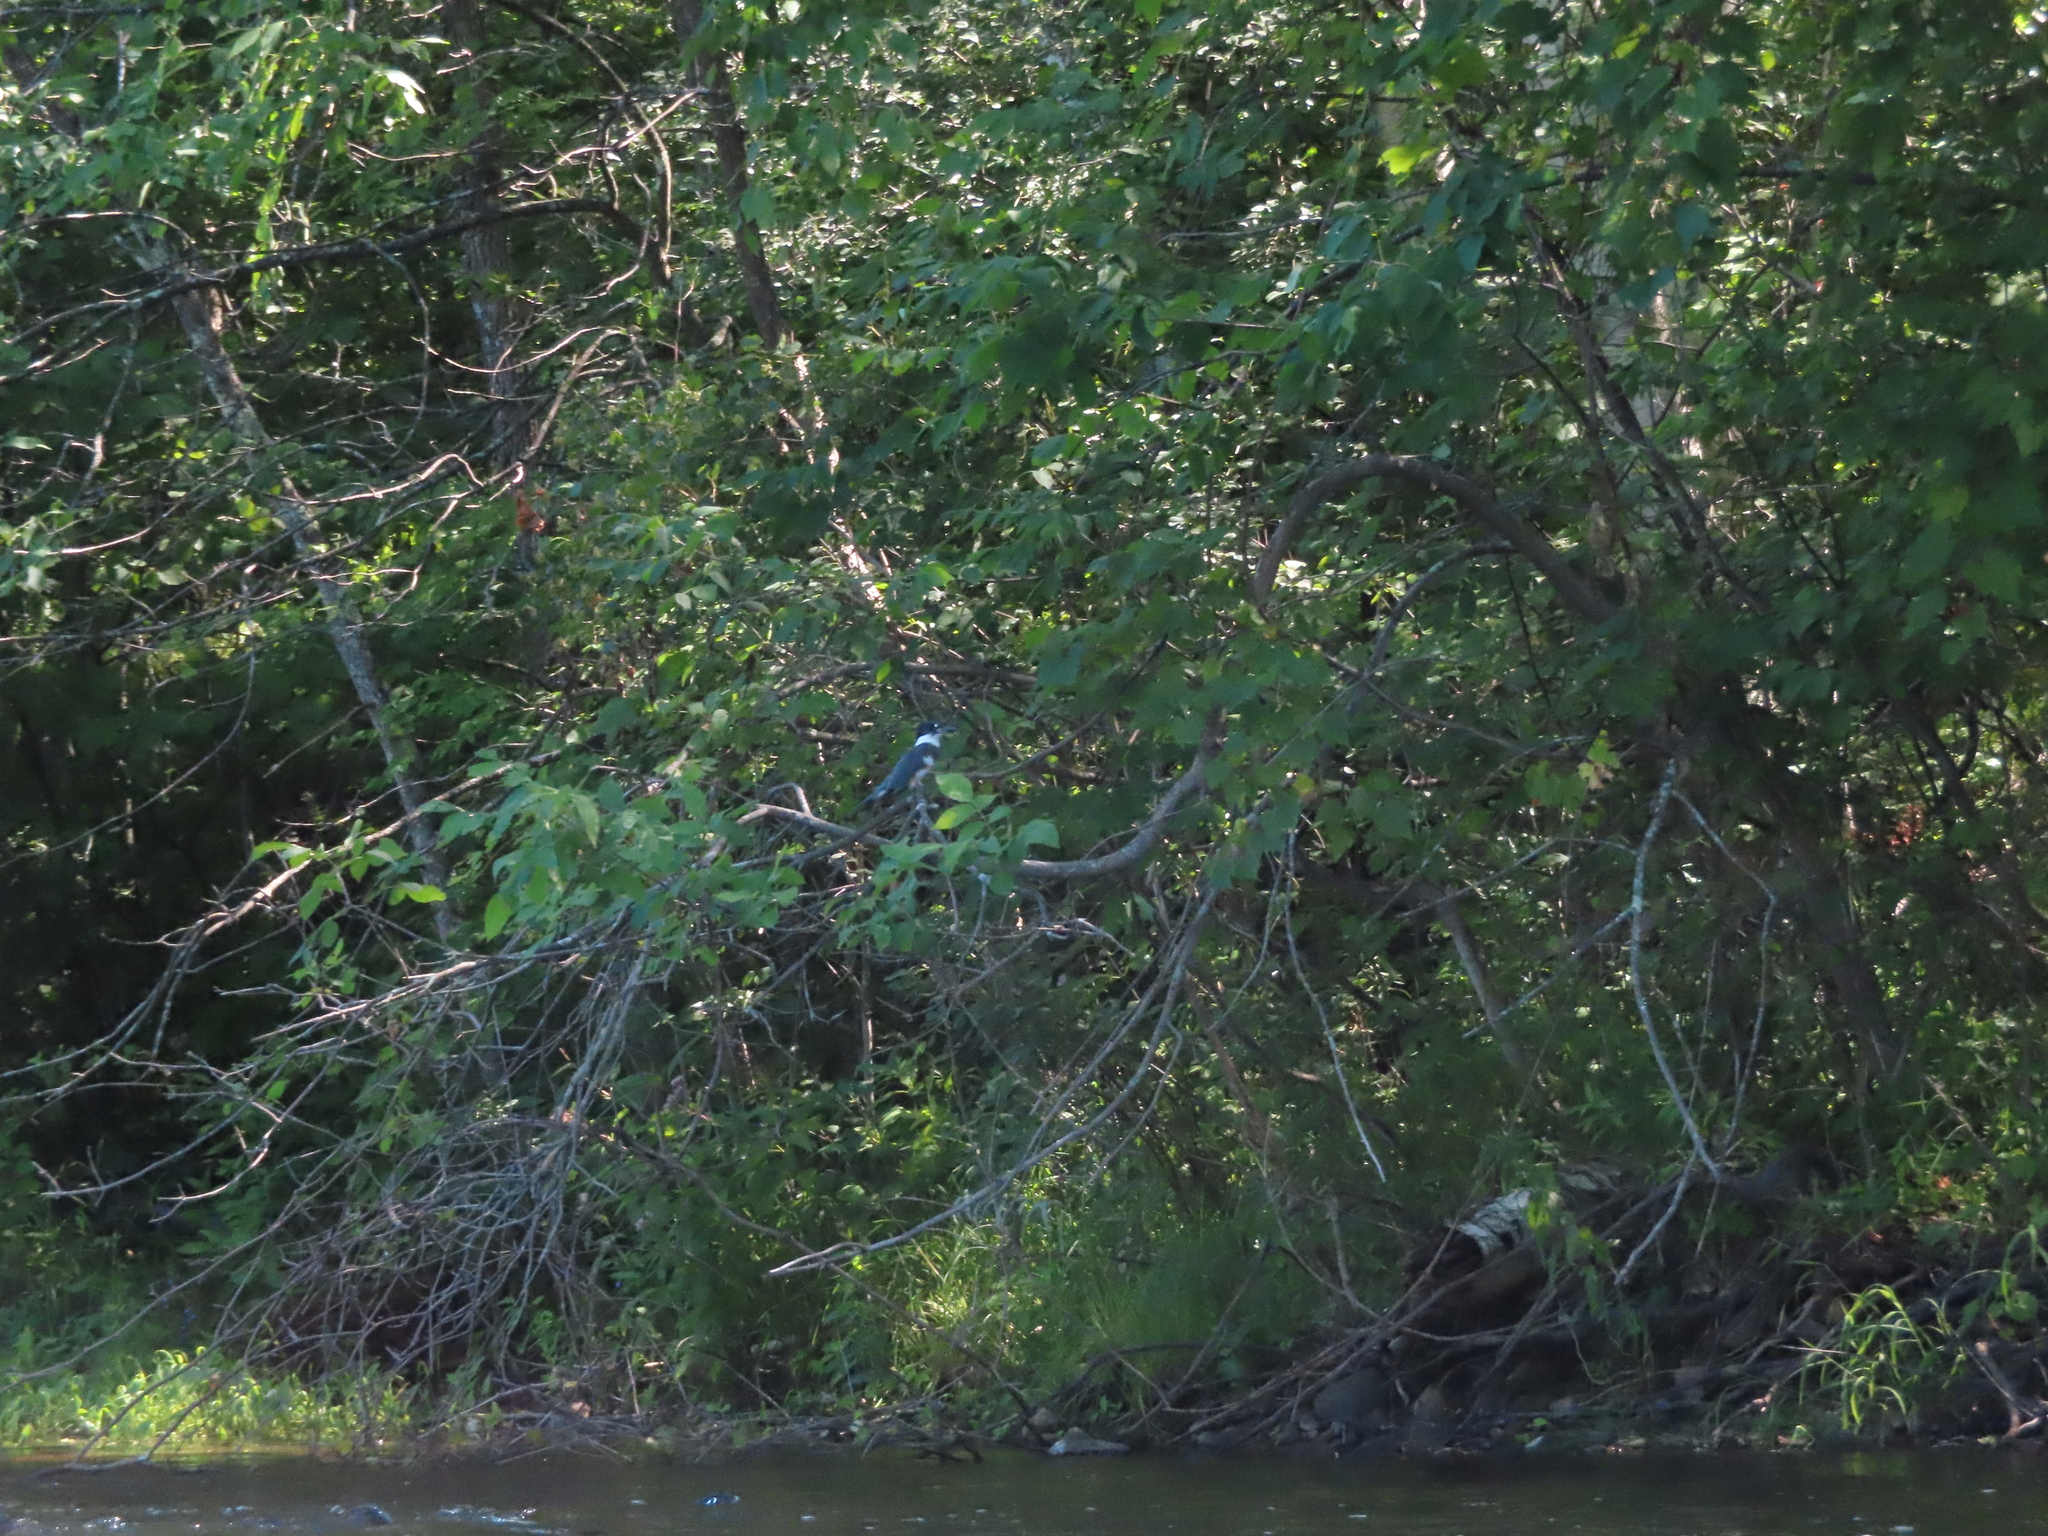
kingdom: Animalia
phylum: Chordata
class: Aves
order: Coraciiformes
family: Alcedinidae
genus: Megaceryle
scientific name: Megaceryle alcyon
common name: Belted kingfisher
